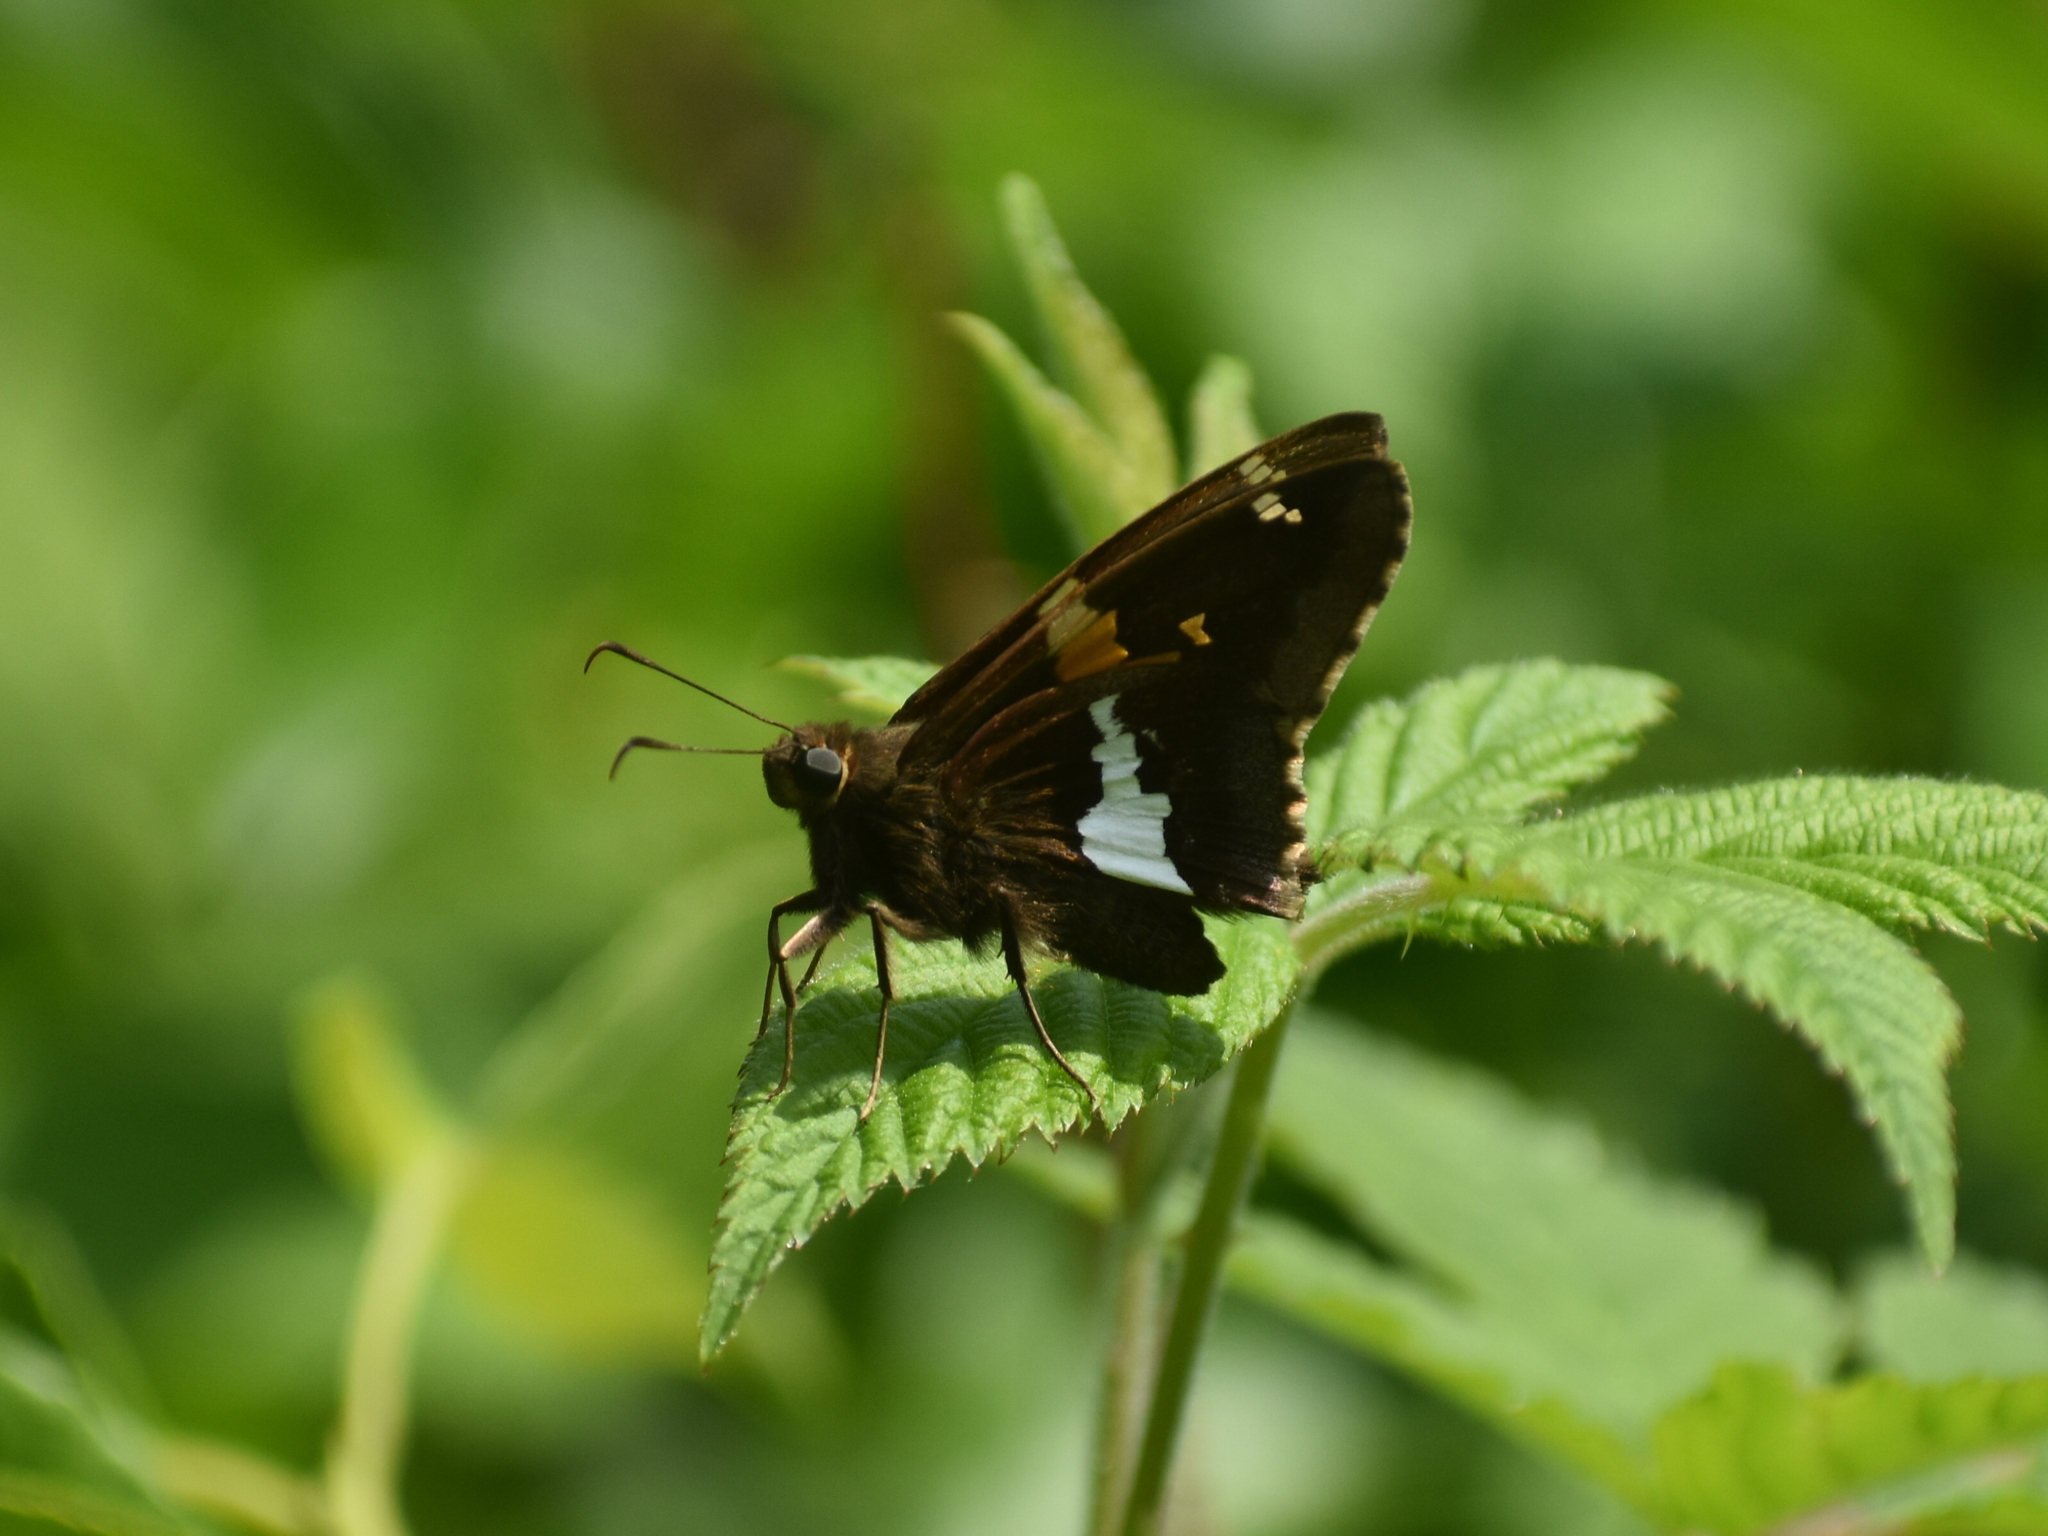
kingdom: Animalia
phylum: Arthropoda
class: Insecta
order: Lepidoptera
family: Hesperiidae
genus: Epargyreus
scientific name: Epargyreus clarus
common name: Silver-spotted skipper
